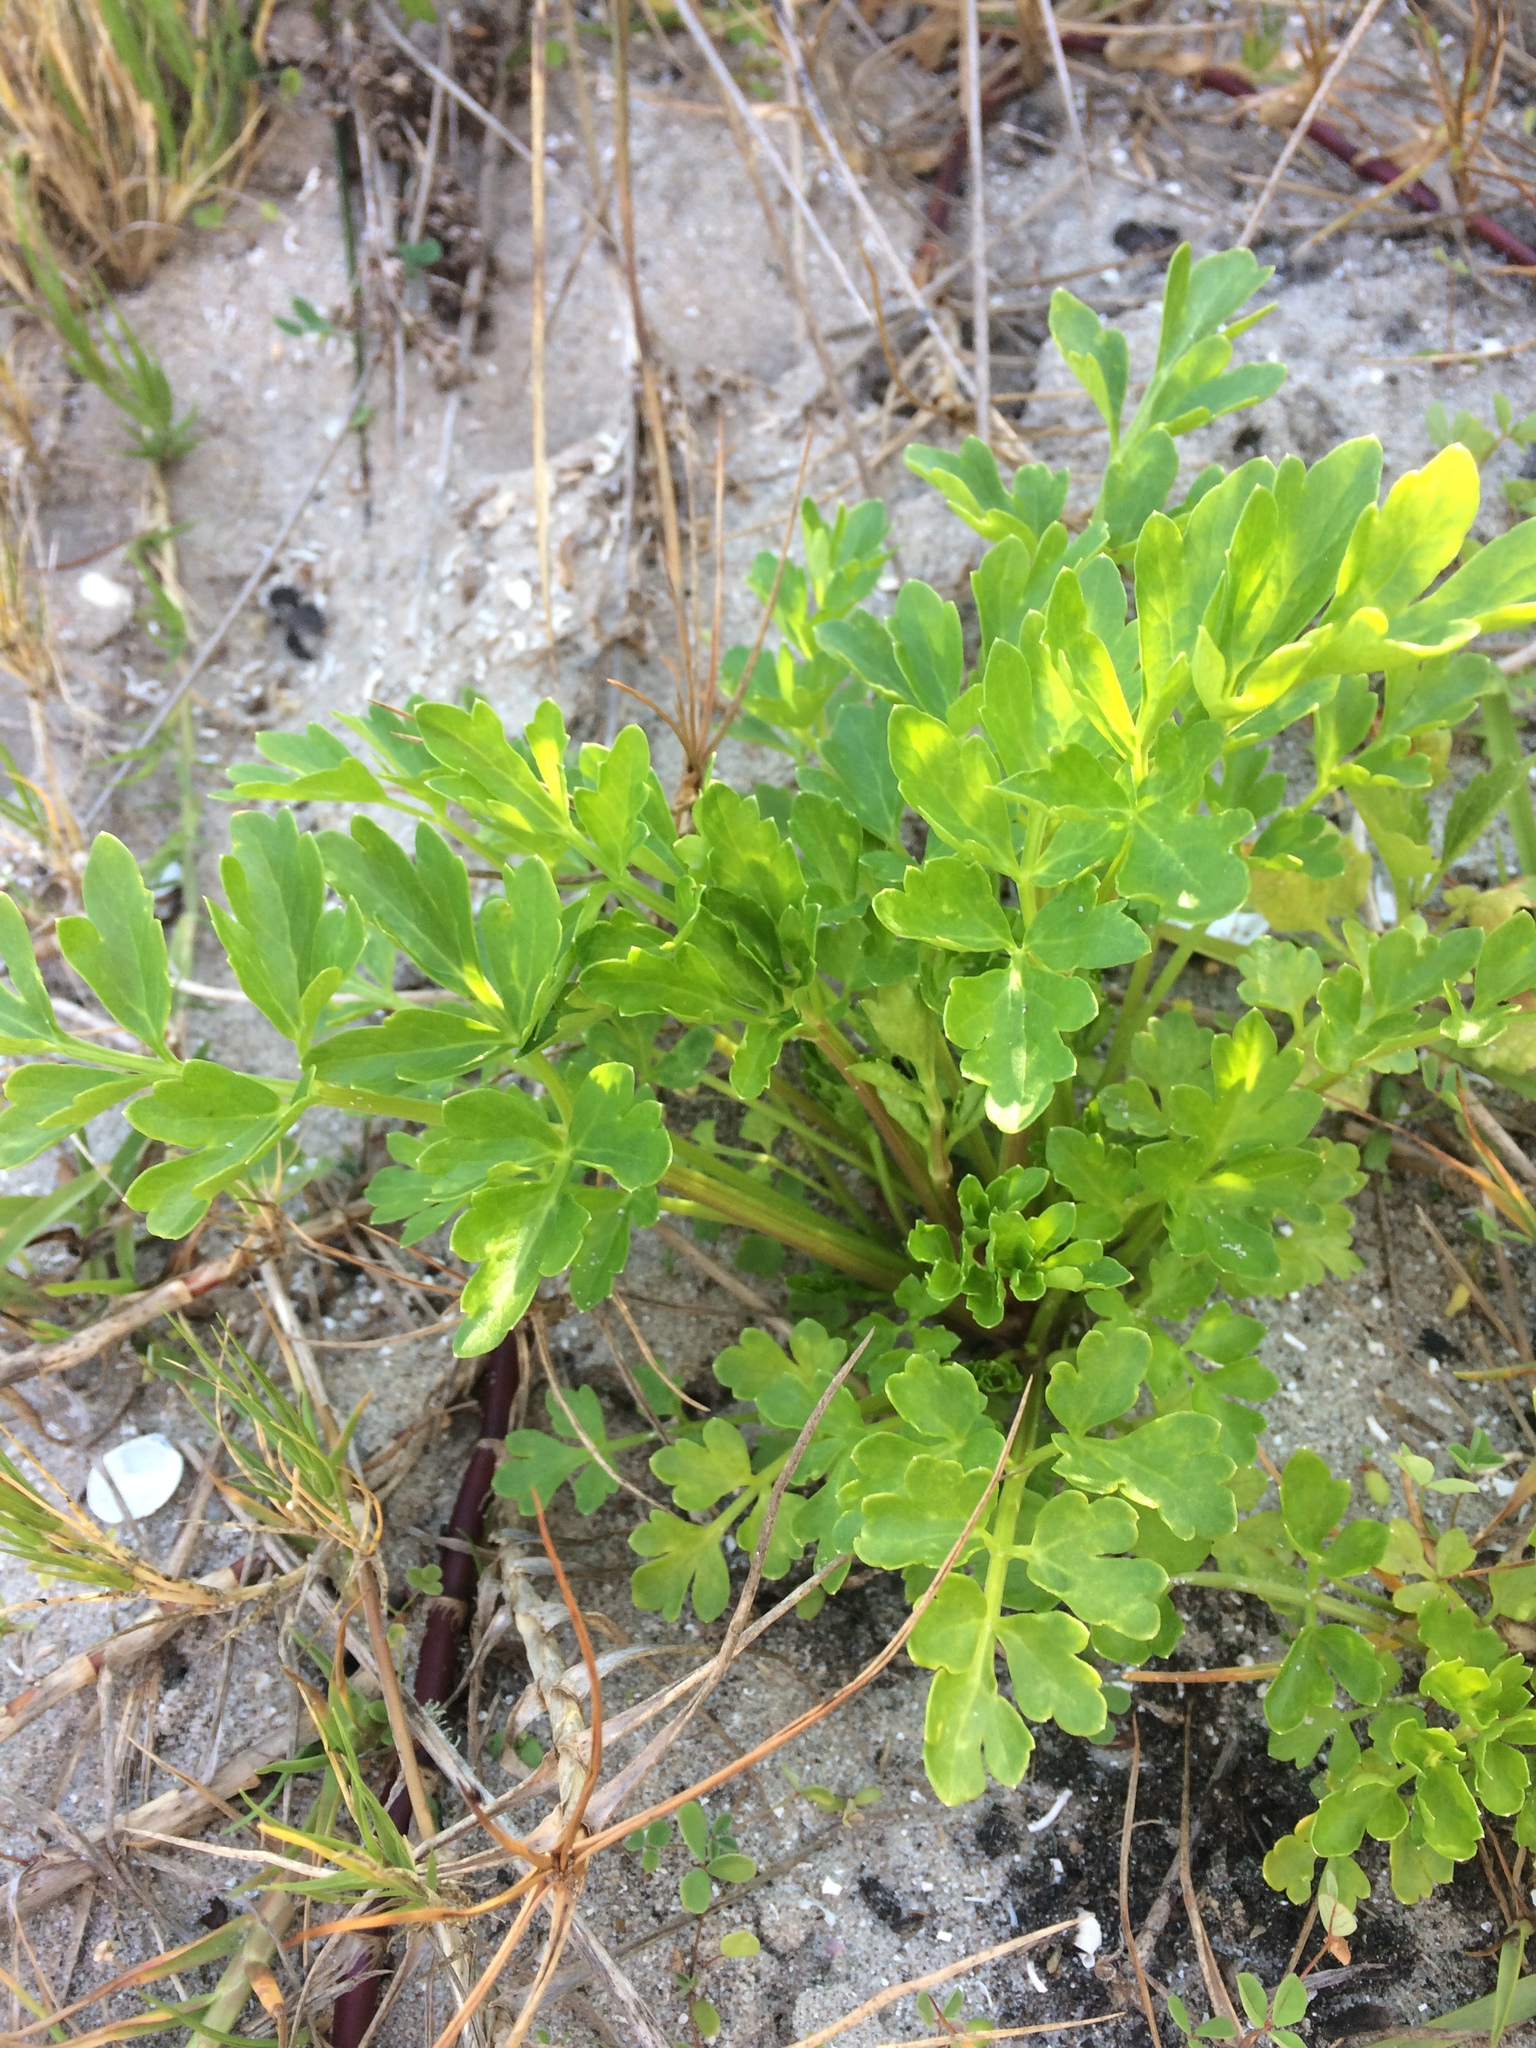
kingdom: Plantae
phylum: Tracheophyta
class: Magnoliopsida
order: Apiales
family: Apiaceae
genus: Apium
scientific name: Apium decumbens
